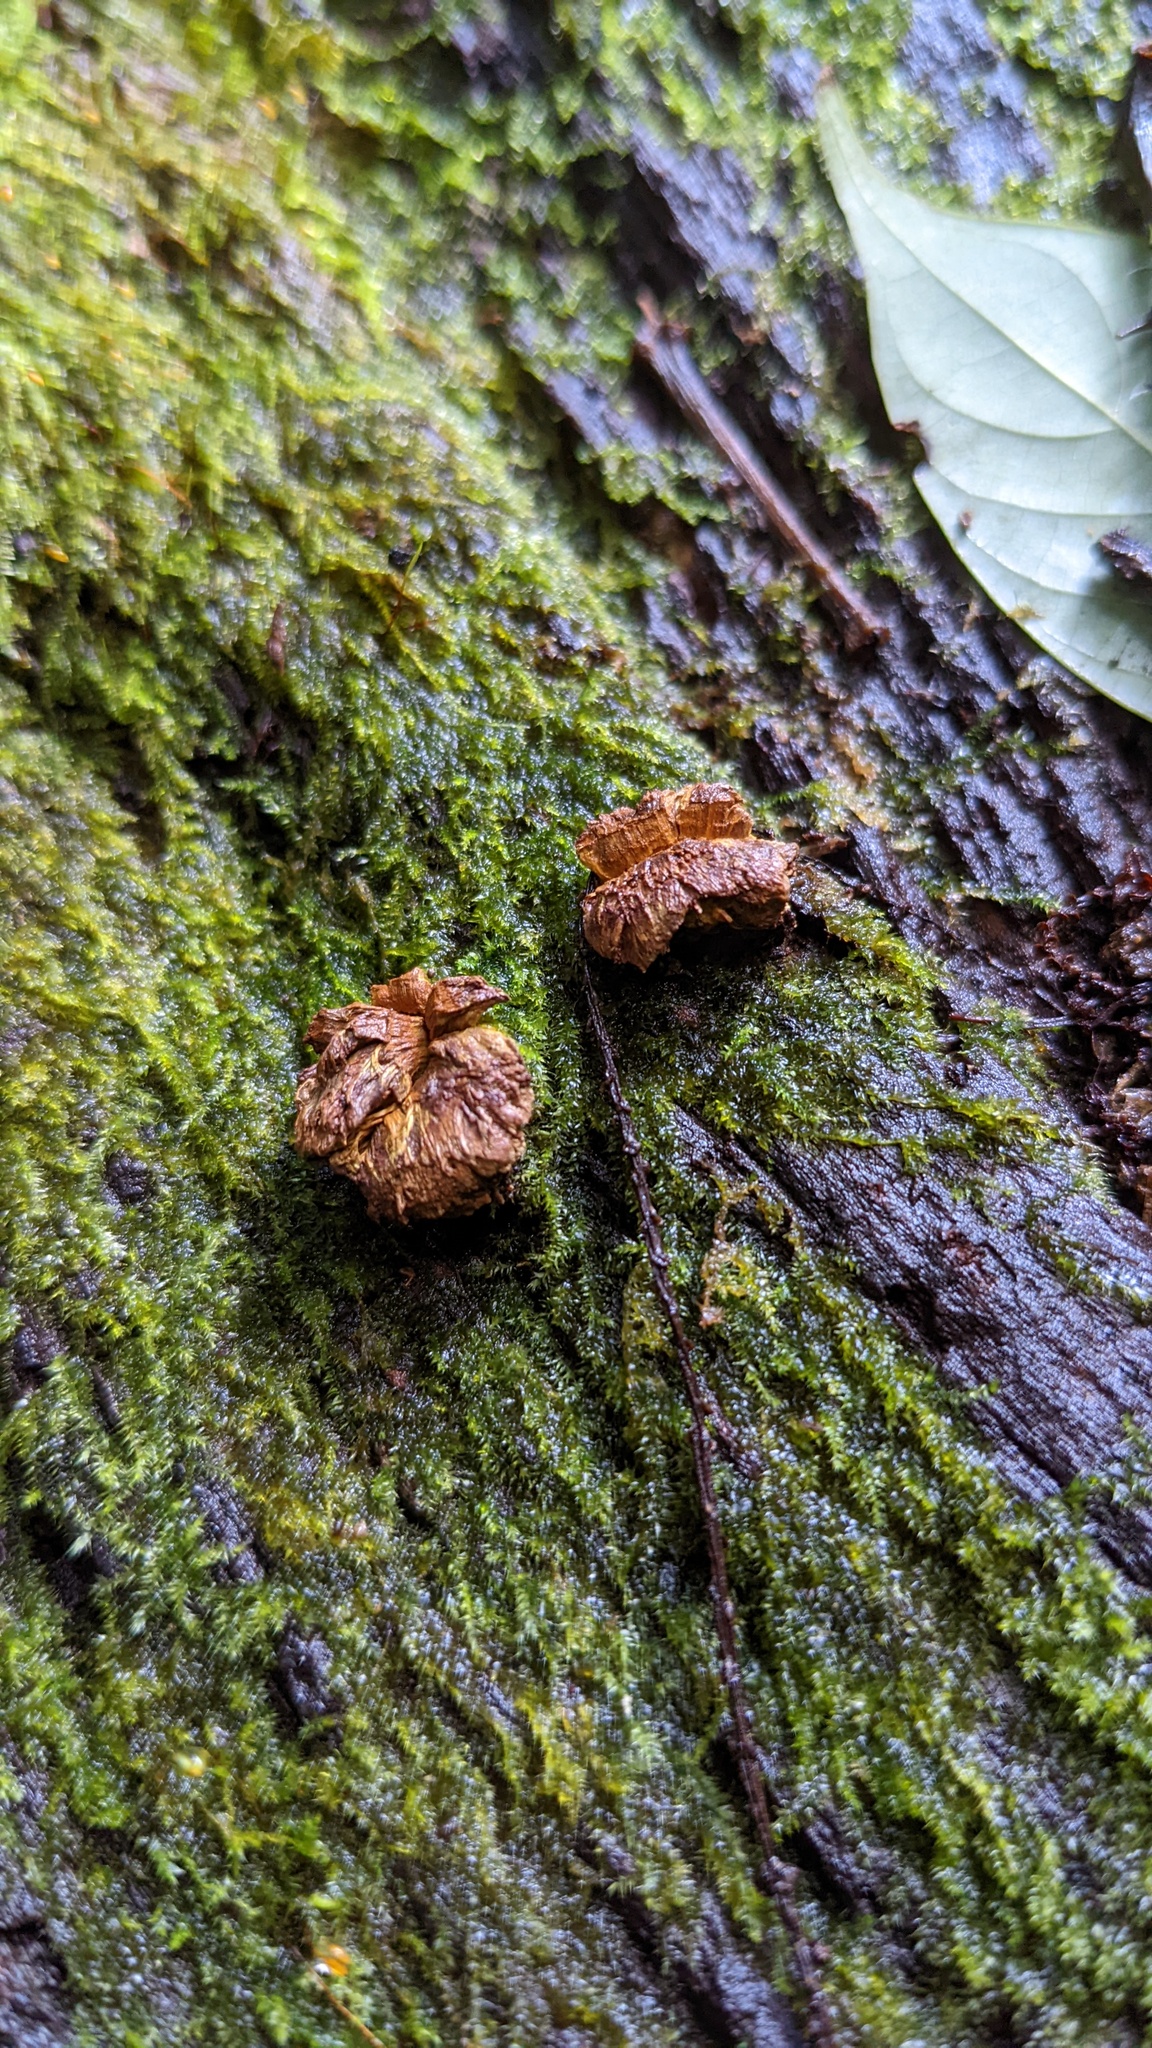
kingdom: Fungi
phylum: Ascomycota
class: Eurotiomycetes
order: Eurotiales
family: Trichocomaceae
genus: Trichocoma
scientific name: Trichocoma paradoxa
